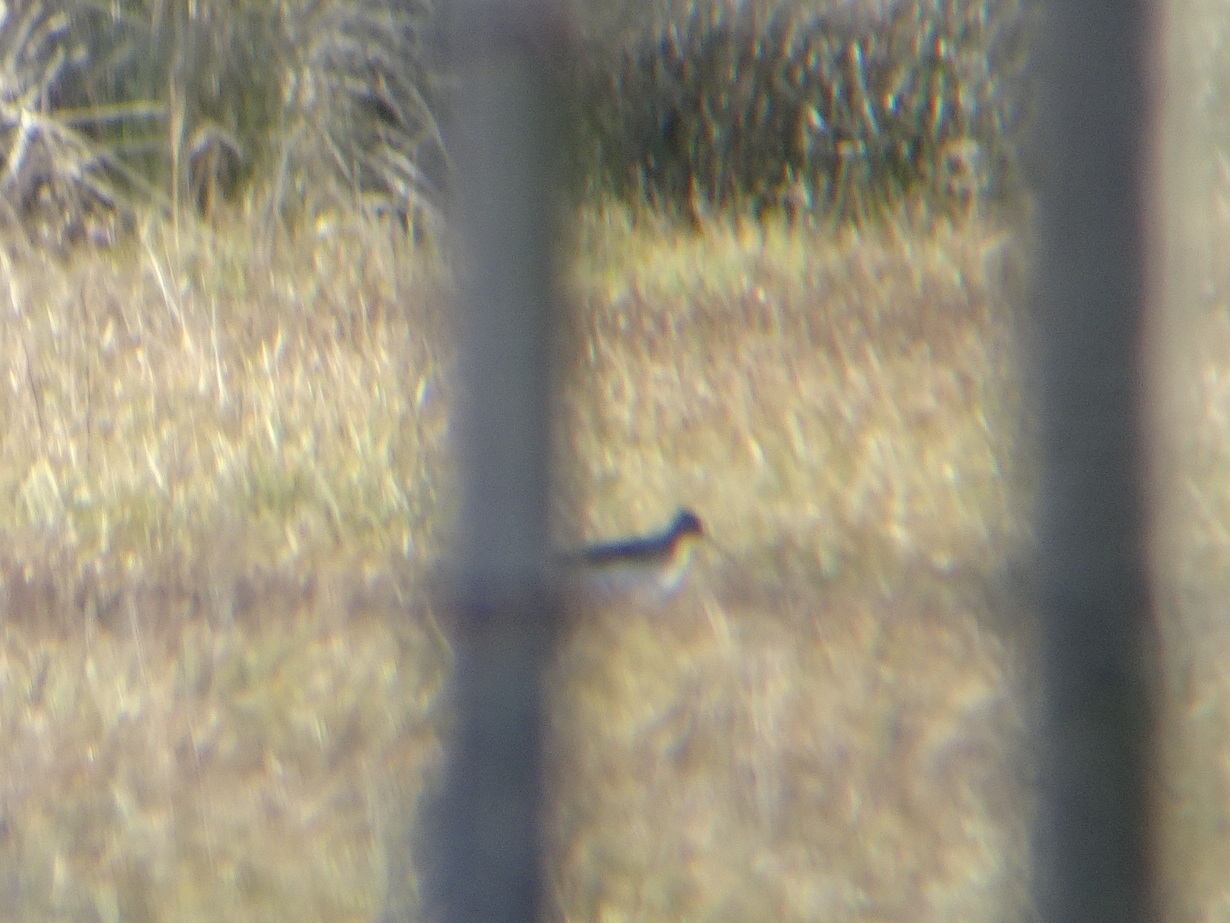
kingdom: Animalia
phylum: Chordata
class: Aves
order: Charadriiformes
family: Scolopacidae
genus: Tringa
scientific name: Tringa
